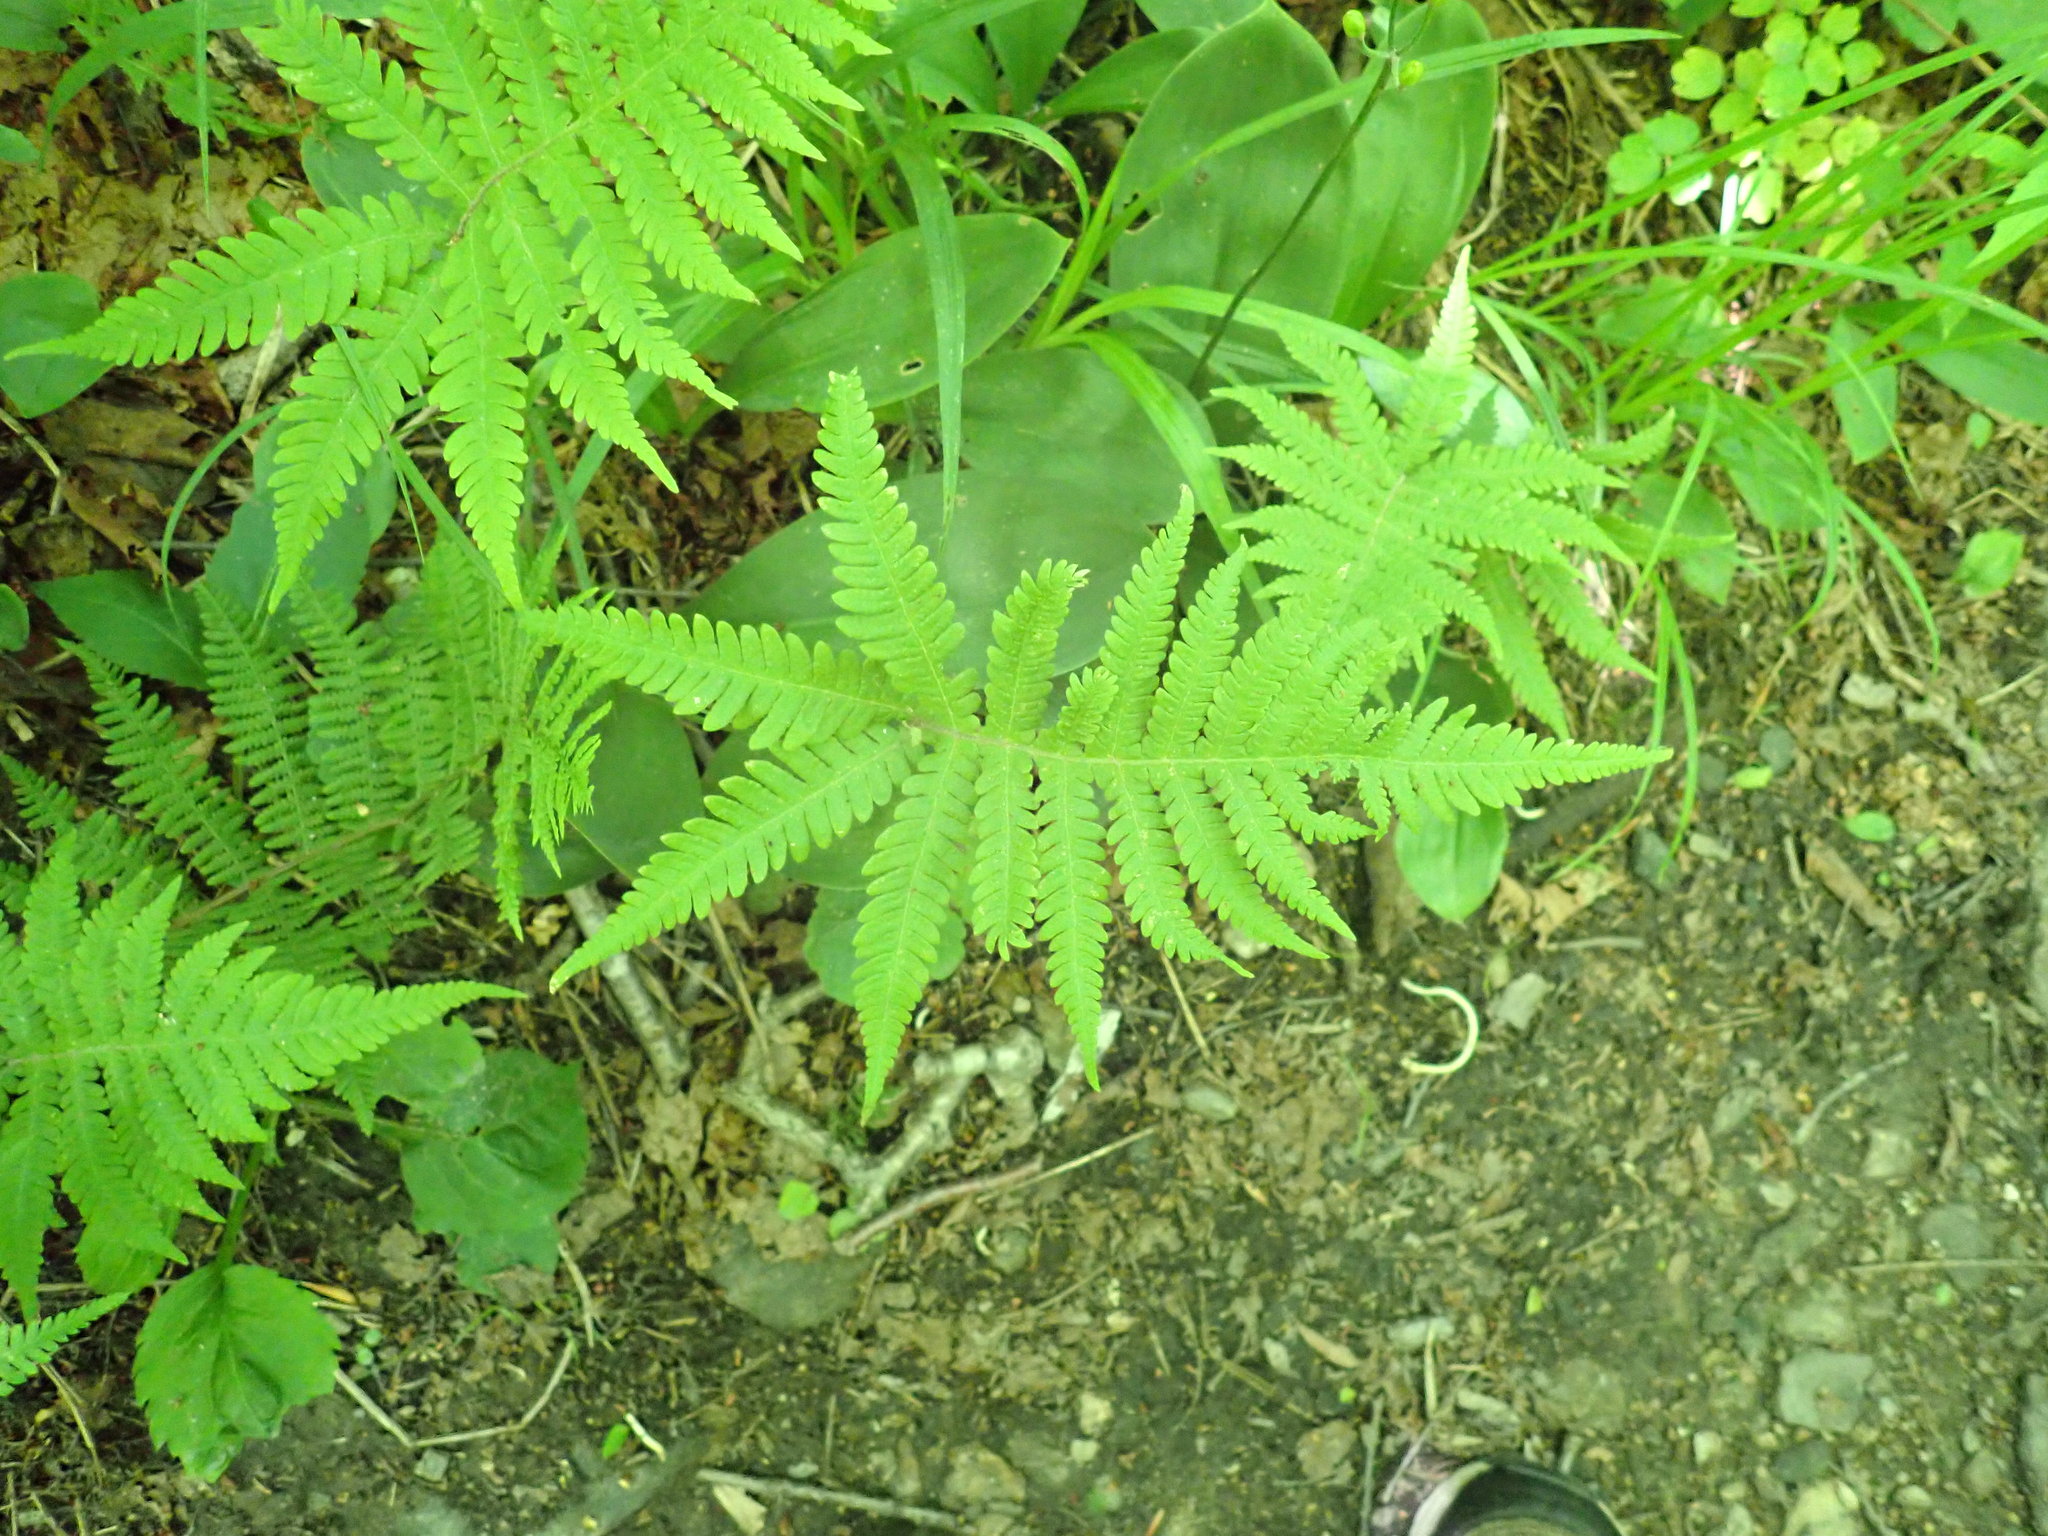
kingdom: Plantae
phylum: Tracheophyta
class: Polypodiopsida
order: Polypodiales
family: Thelypteridaceae
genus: Phegopteris
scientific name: Phegopteris connectilis
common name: Beech fern
